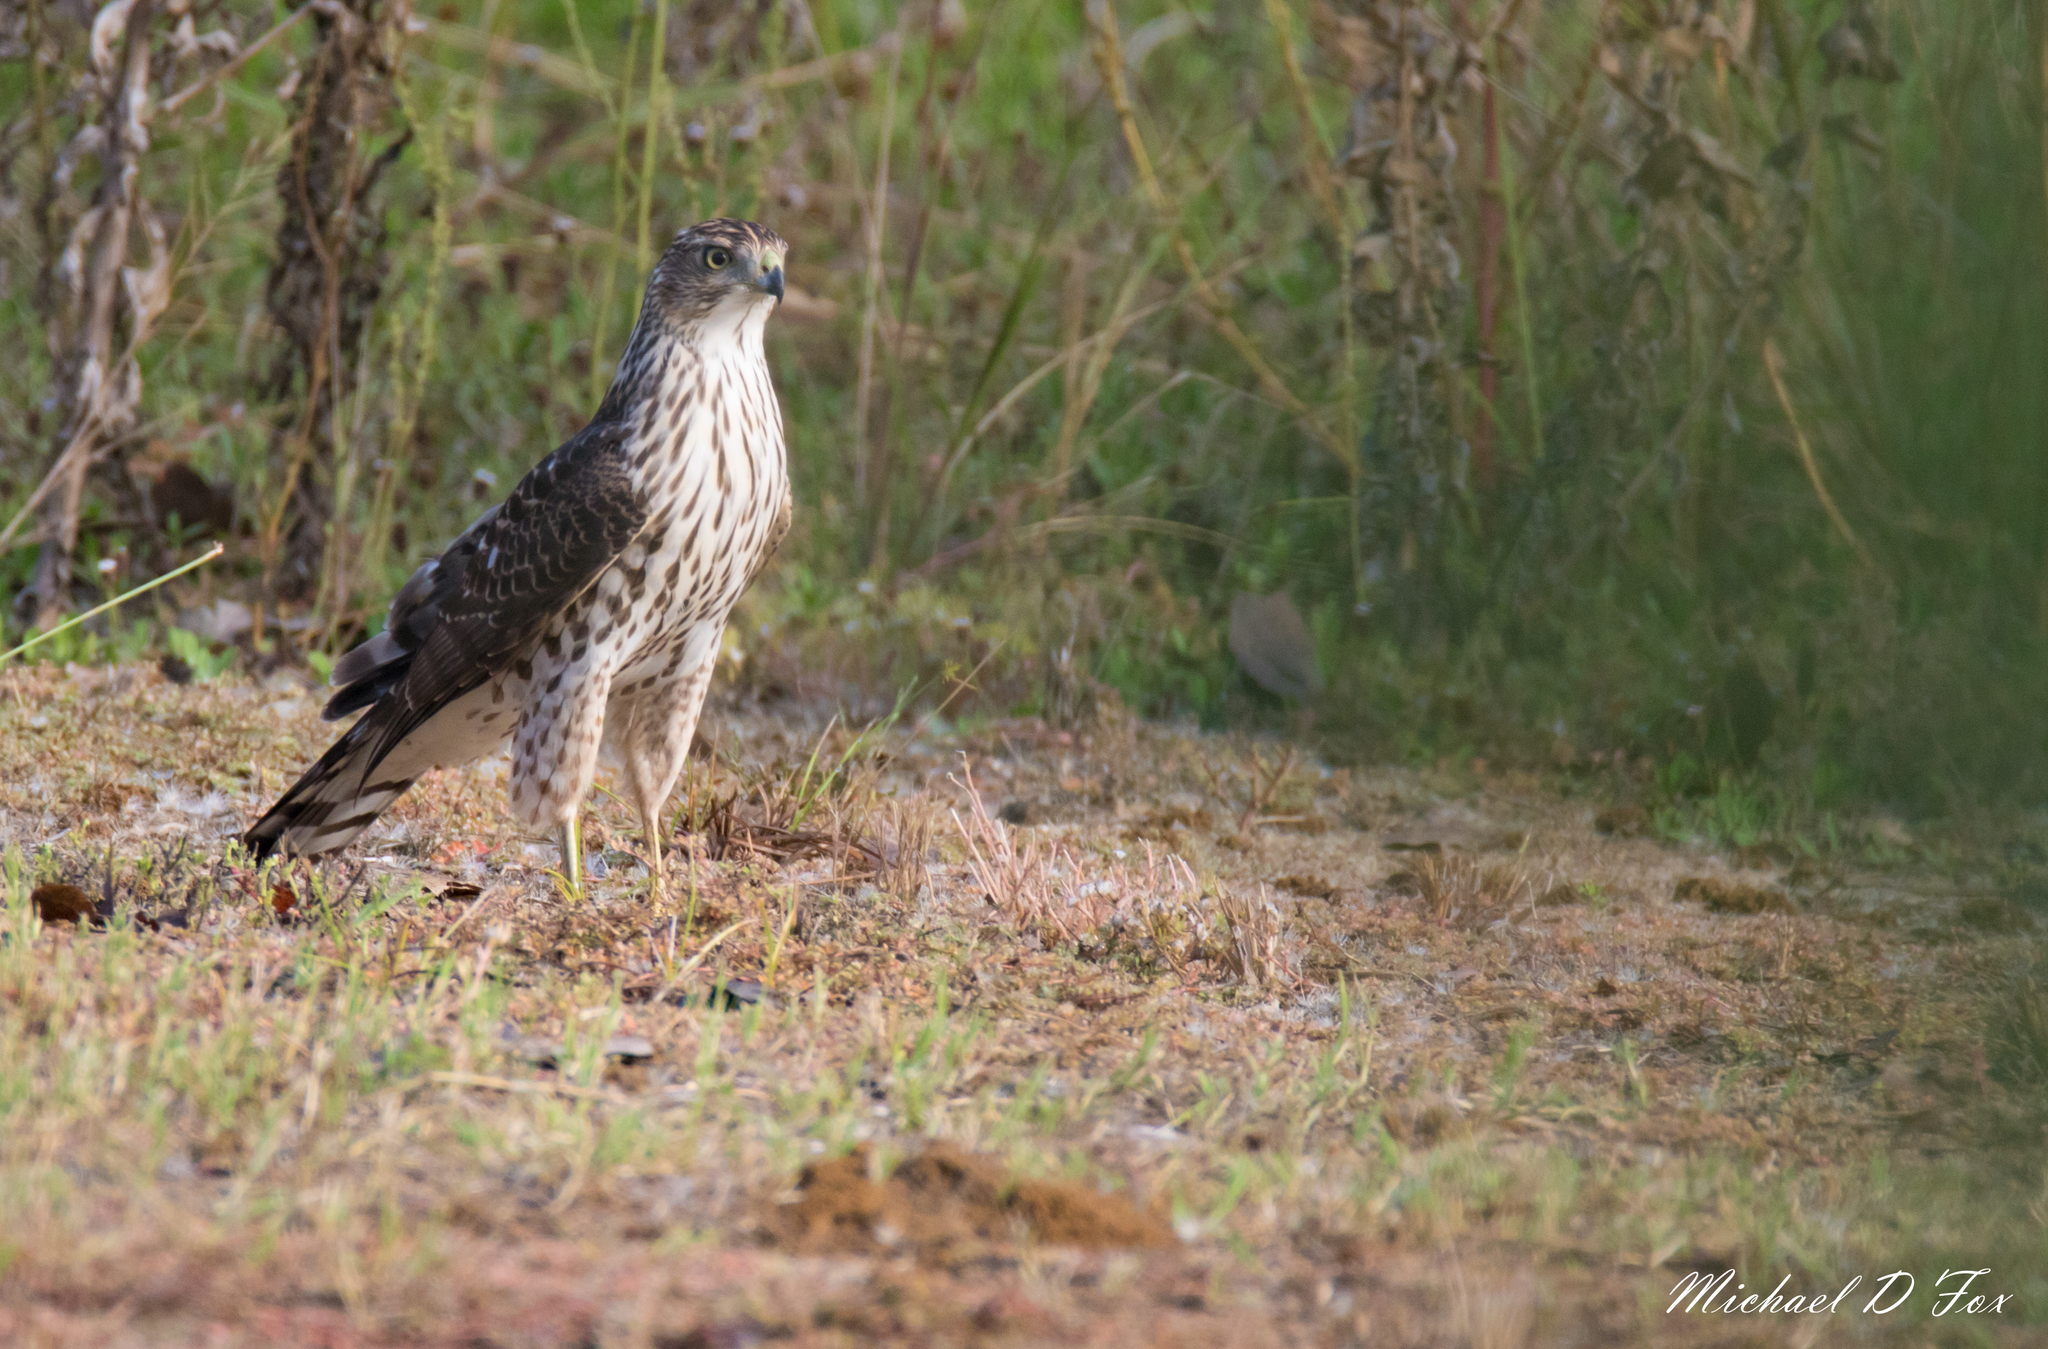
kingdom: Animalia
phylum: Chordata
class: Aves
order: Accipitriformes
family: Accipitridae
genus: Accipiter
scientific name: Accipiter cooperii
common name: Cooper's hawk
